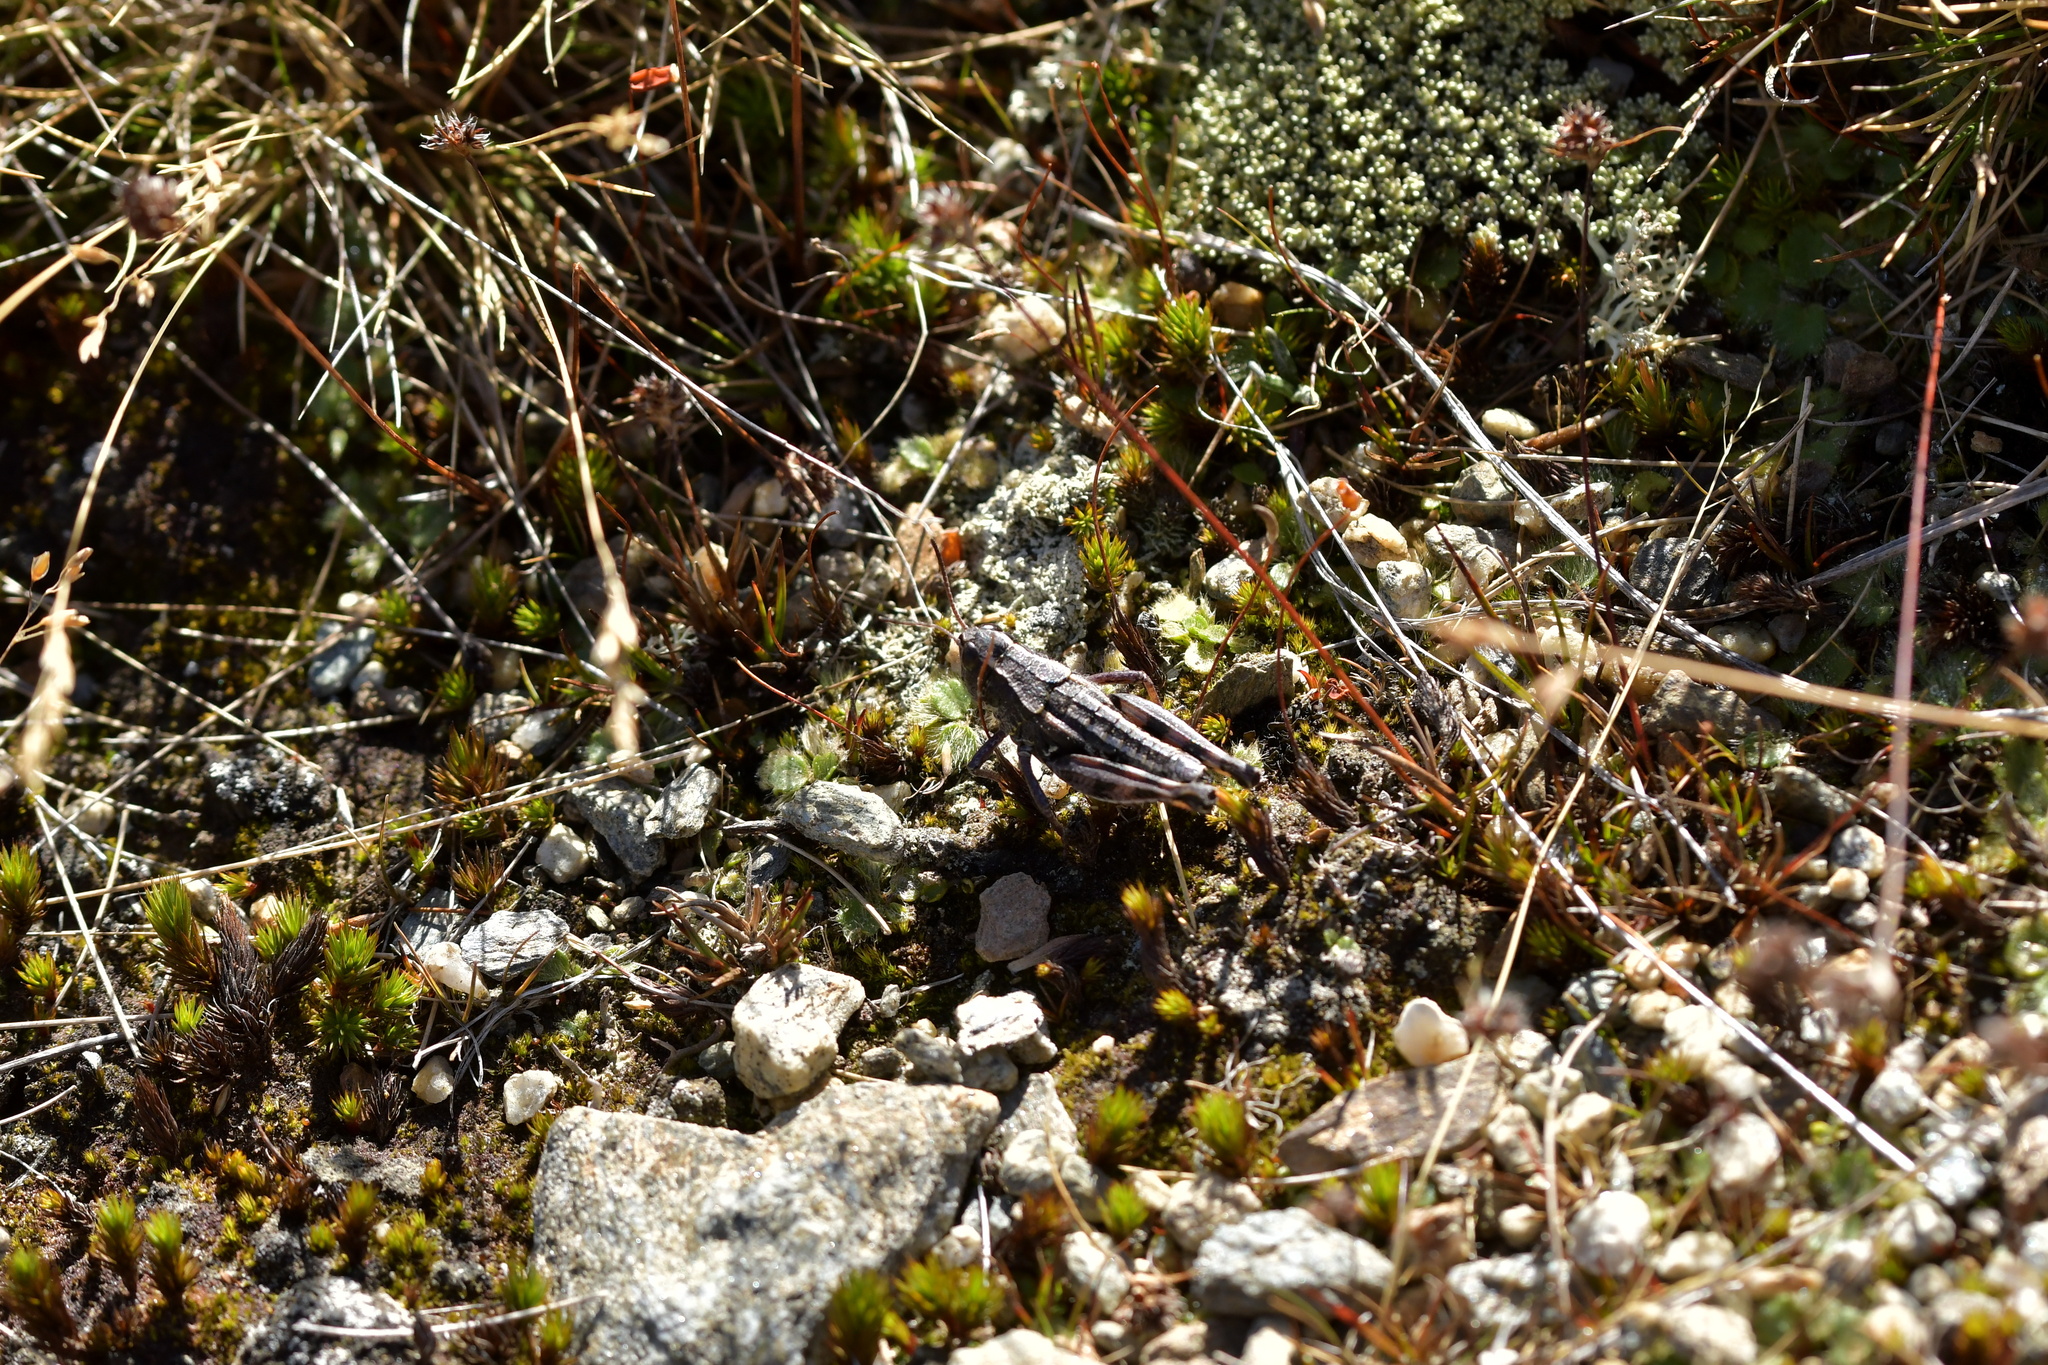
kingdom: Animalia
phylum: Arthropoda
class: Insecta
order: Orthoptera
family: Acrididae
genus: Sigaus
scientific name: Sigaus australis
